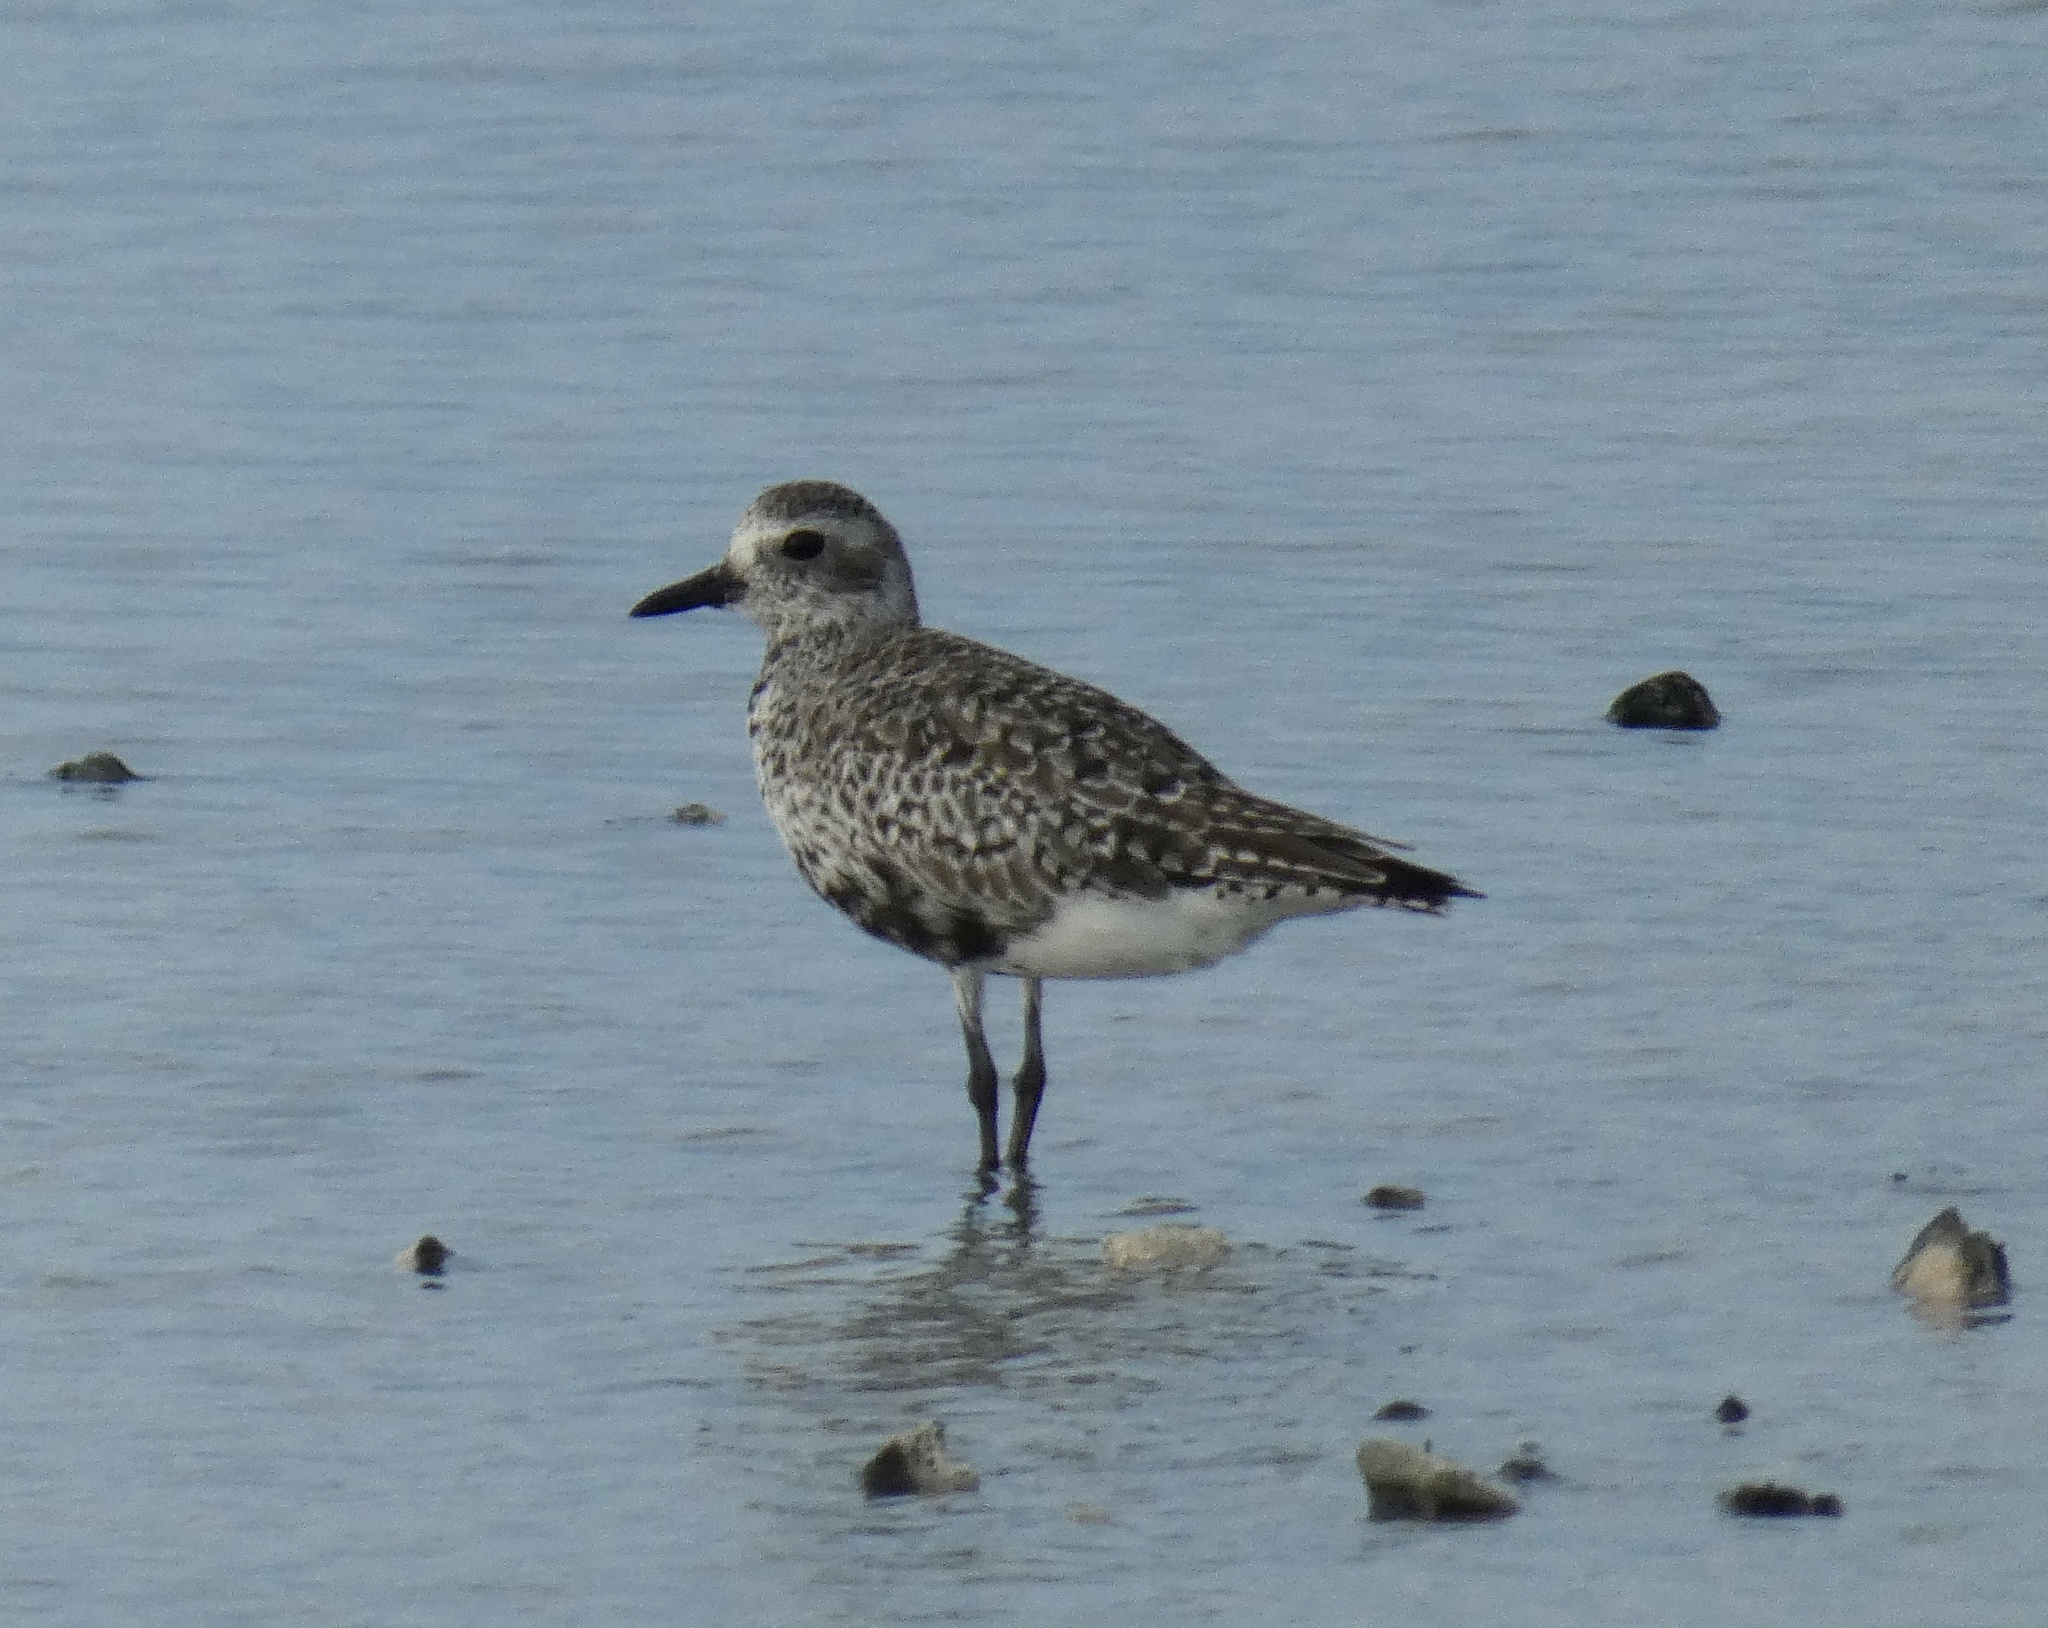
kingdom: Animalia
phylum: Chordata
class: Aves
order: Charadriiformes
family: Charadriidae
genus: Pluvialis
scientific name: Pluvialis squatarola
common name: Grey plover
